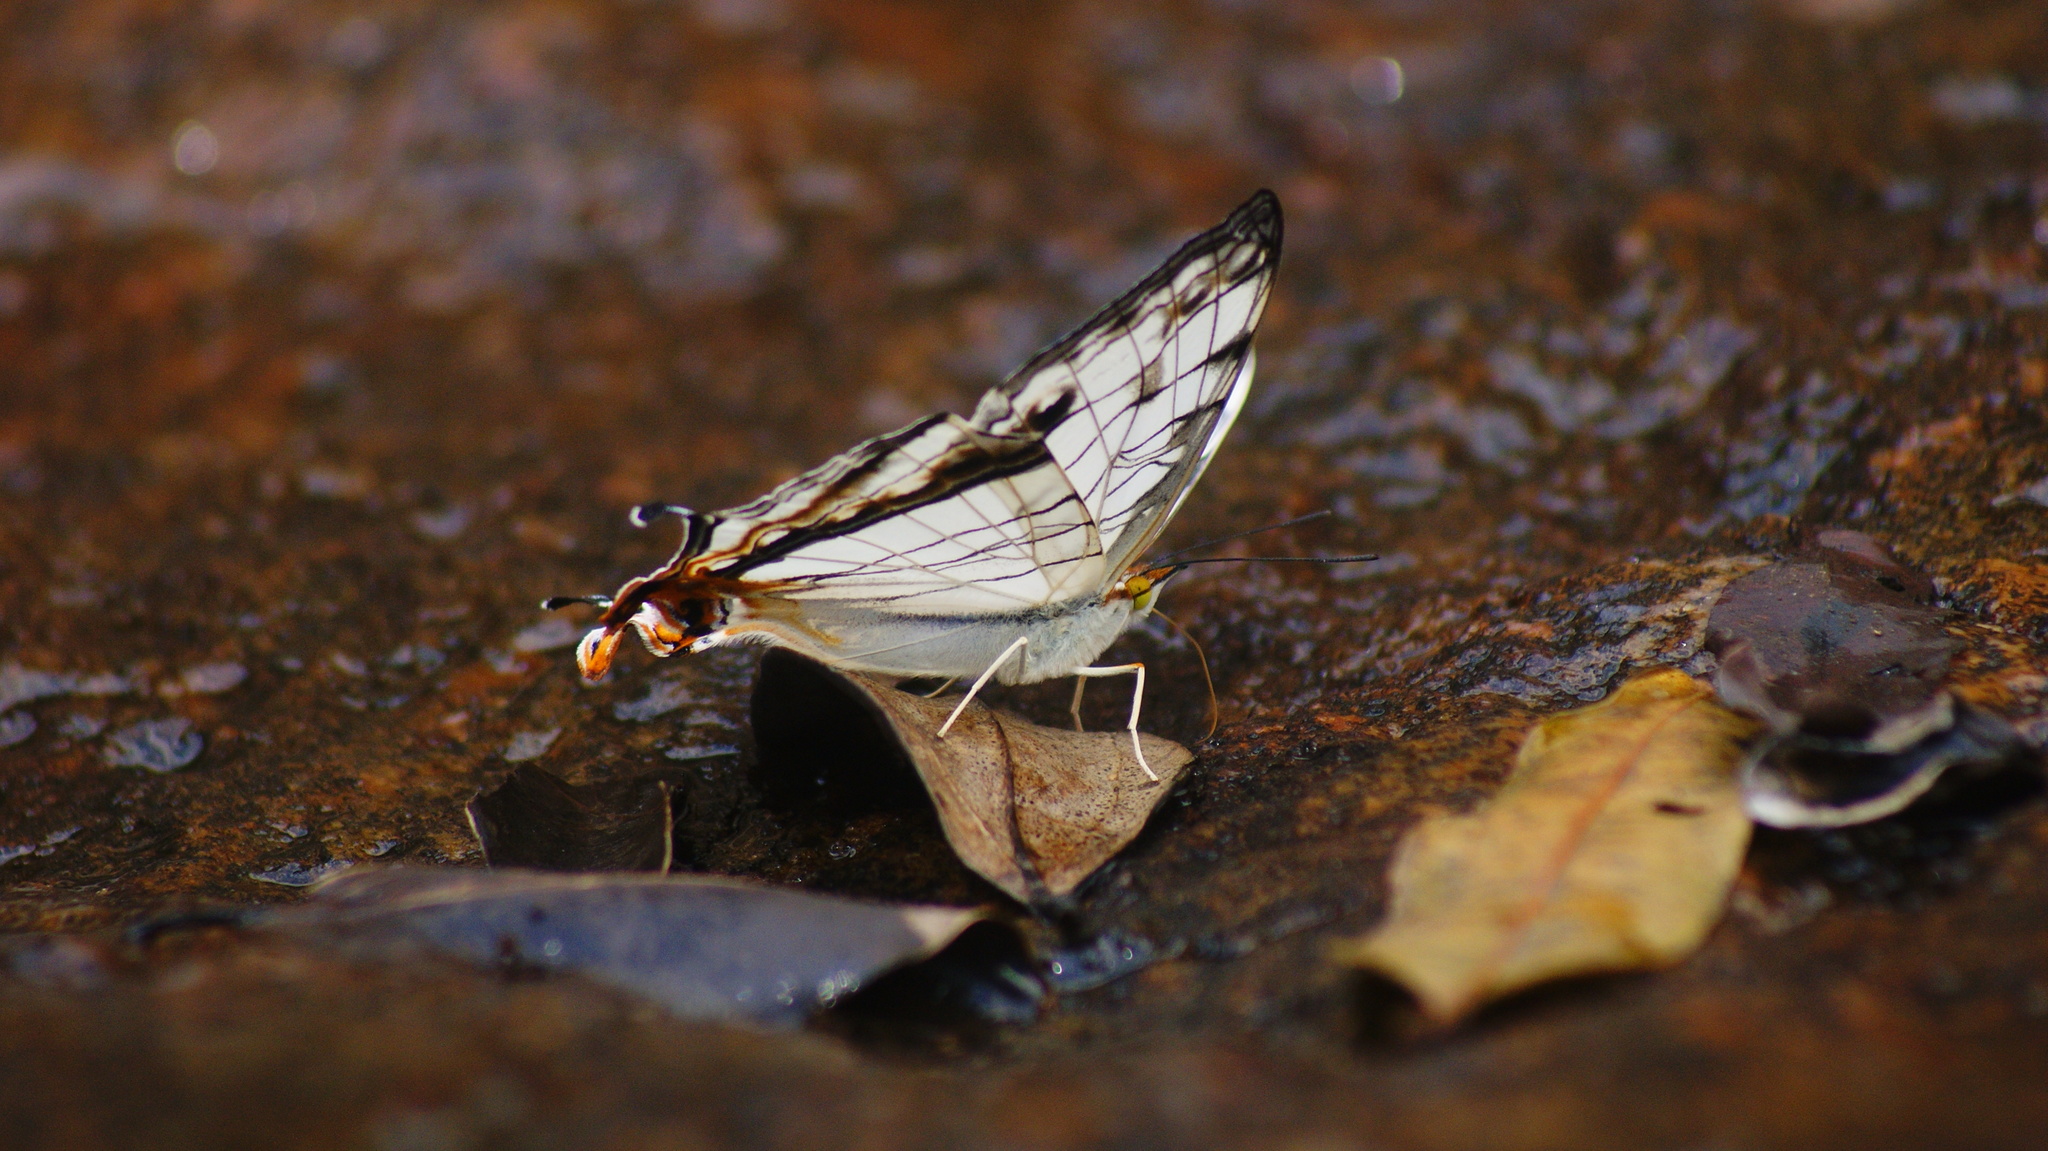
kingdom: Animalia
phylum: Arthropoda
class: Insecta
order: Lepidoptera
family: Nymphalidae
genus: Cyrestis
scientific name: Cyrestis thyodamas
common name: Common mapwing
